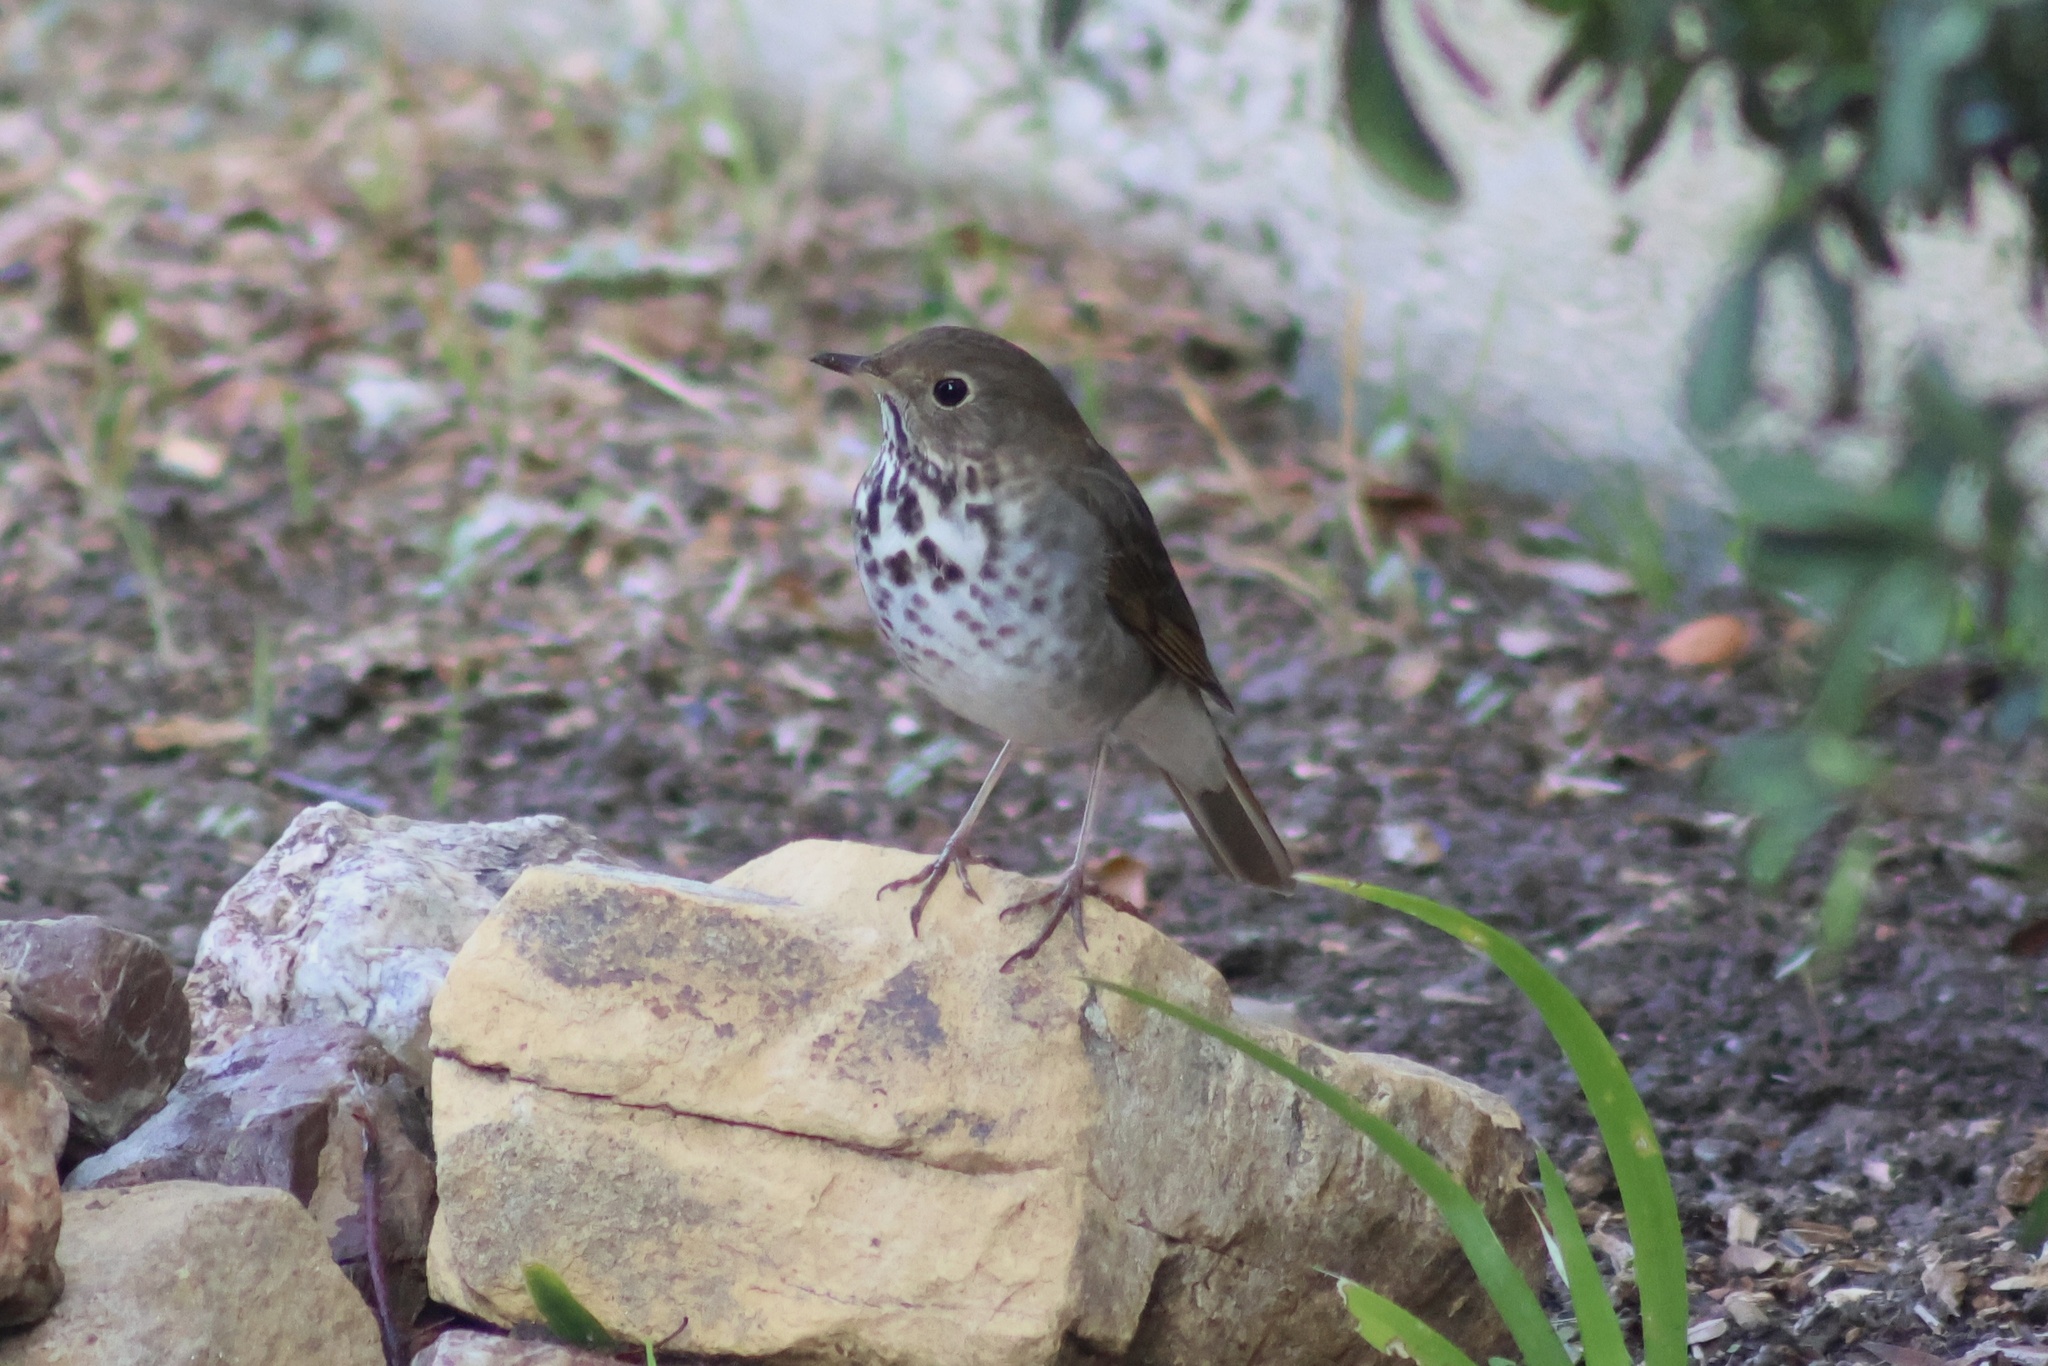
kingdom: Animalia
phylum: Chordata
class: Aves
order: Passeriformes
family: Turdidae
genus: Catharus
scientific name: Catharus guttatus
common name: Hermit thrush
